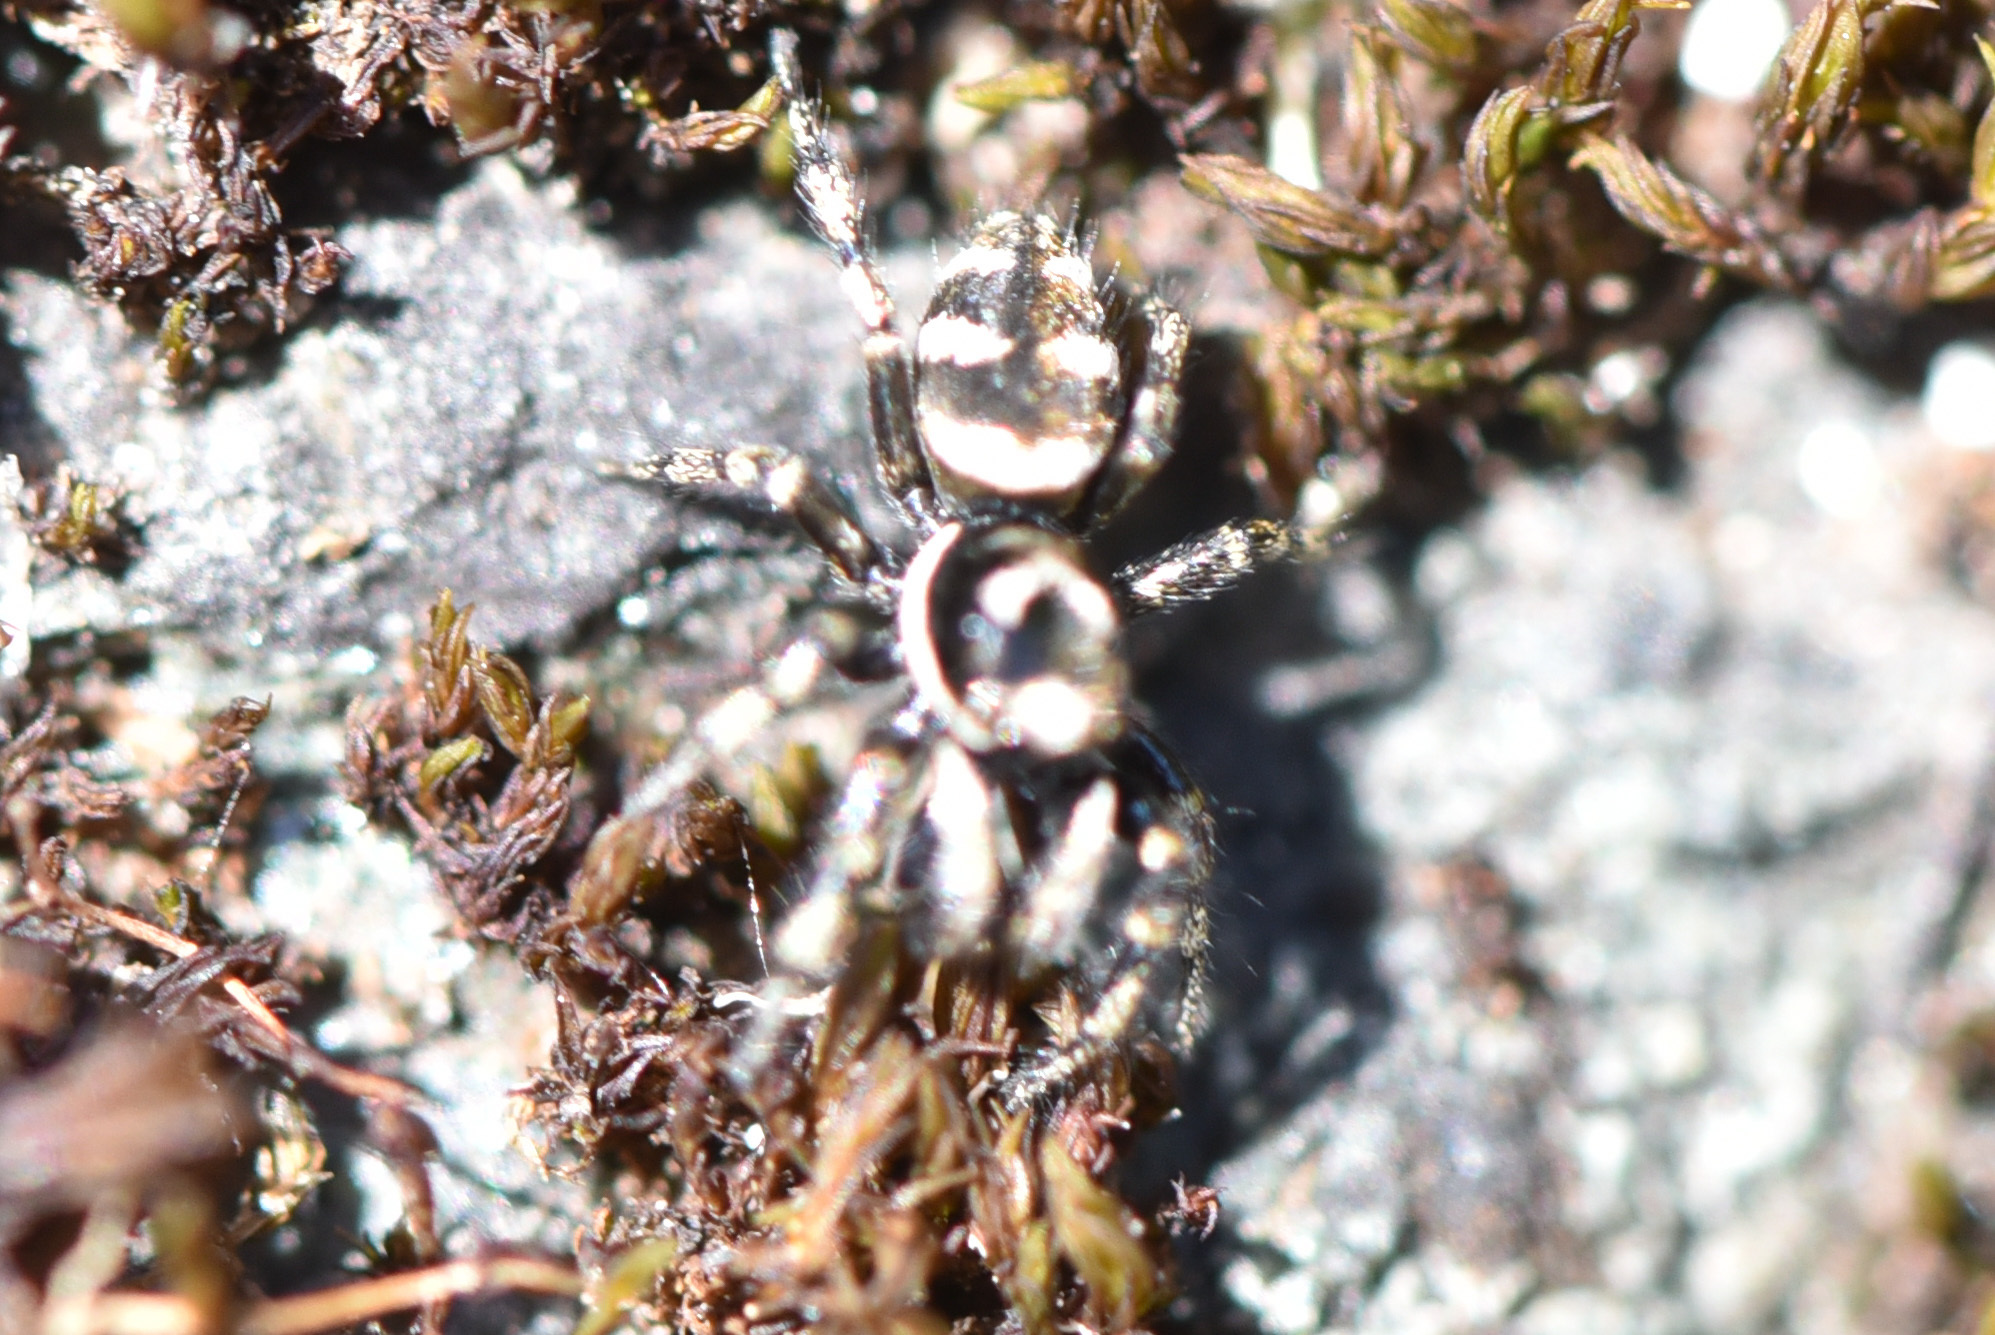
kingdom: Animalia
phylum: Arthropoda
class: Arachnida
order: Araneae
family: Salticidae
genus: Salticus
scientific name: Salticus scenicus
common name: Zebra jumper
